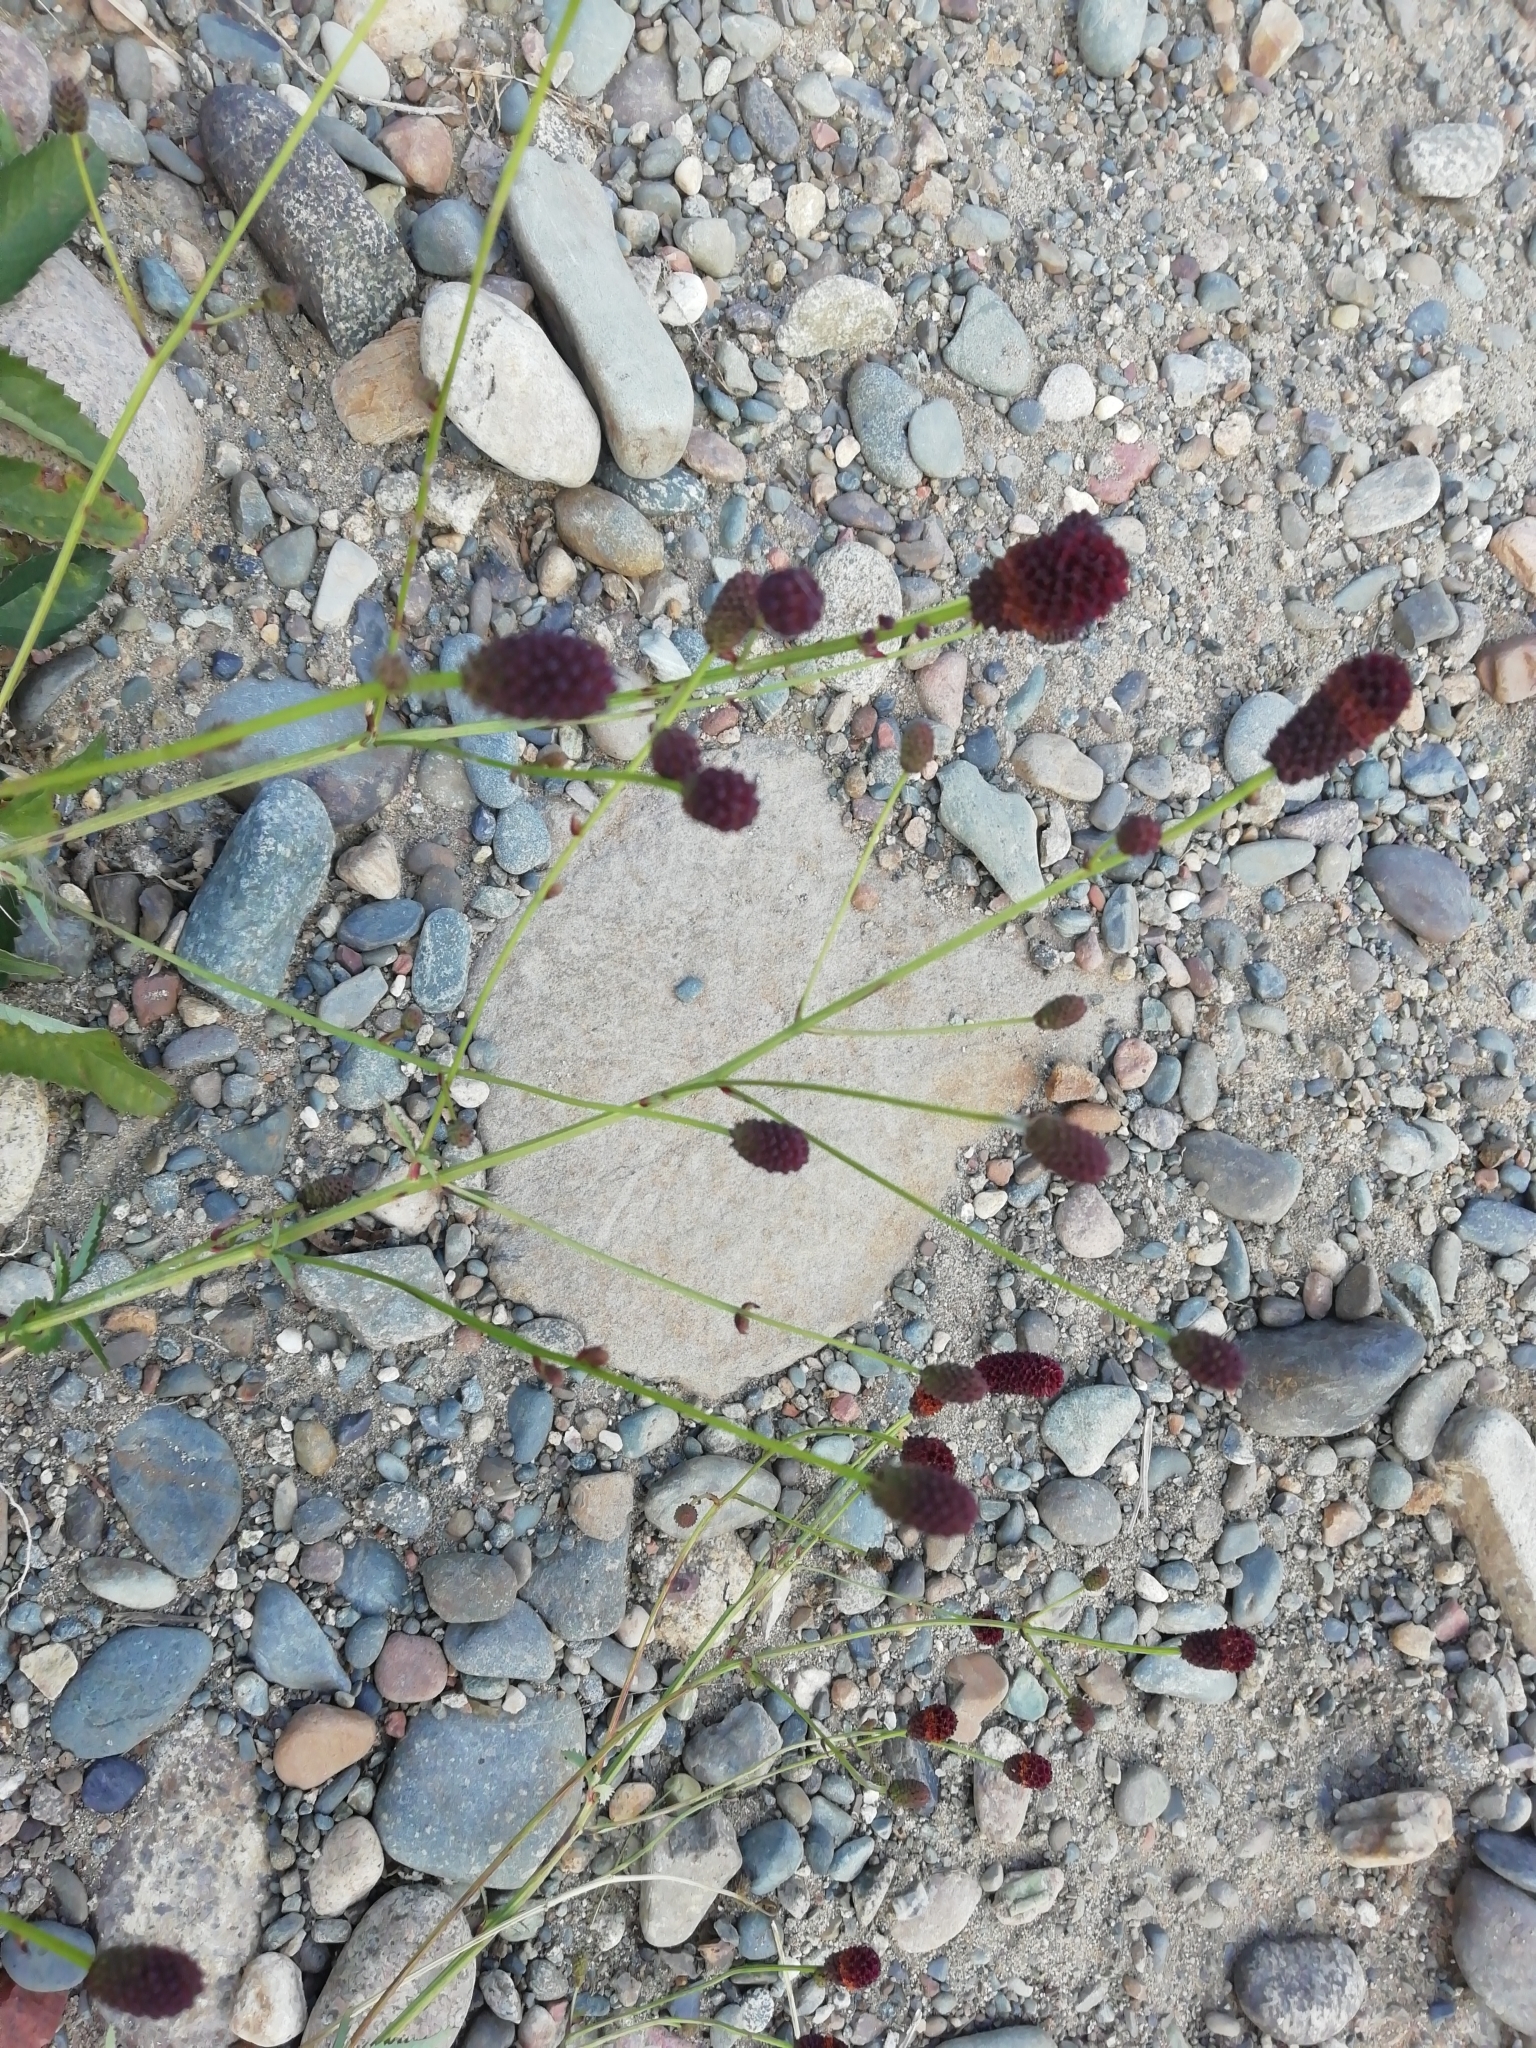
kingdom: Plantae
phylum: Tracheophyta
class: Magnoliopsida
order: Rosales
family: Rosaceae
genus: Sanguisorba
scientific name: Sanguisorba officinalis
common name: Great burnet
